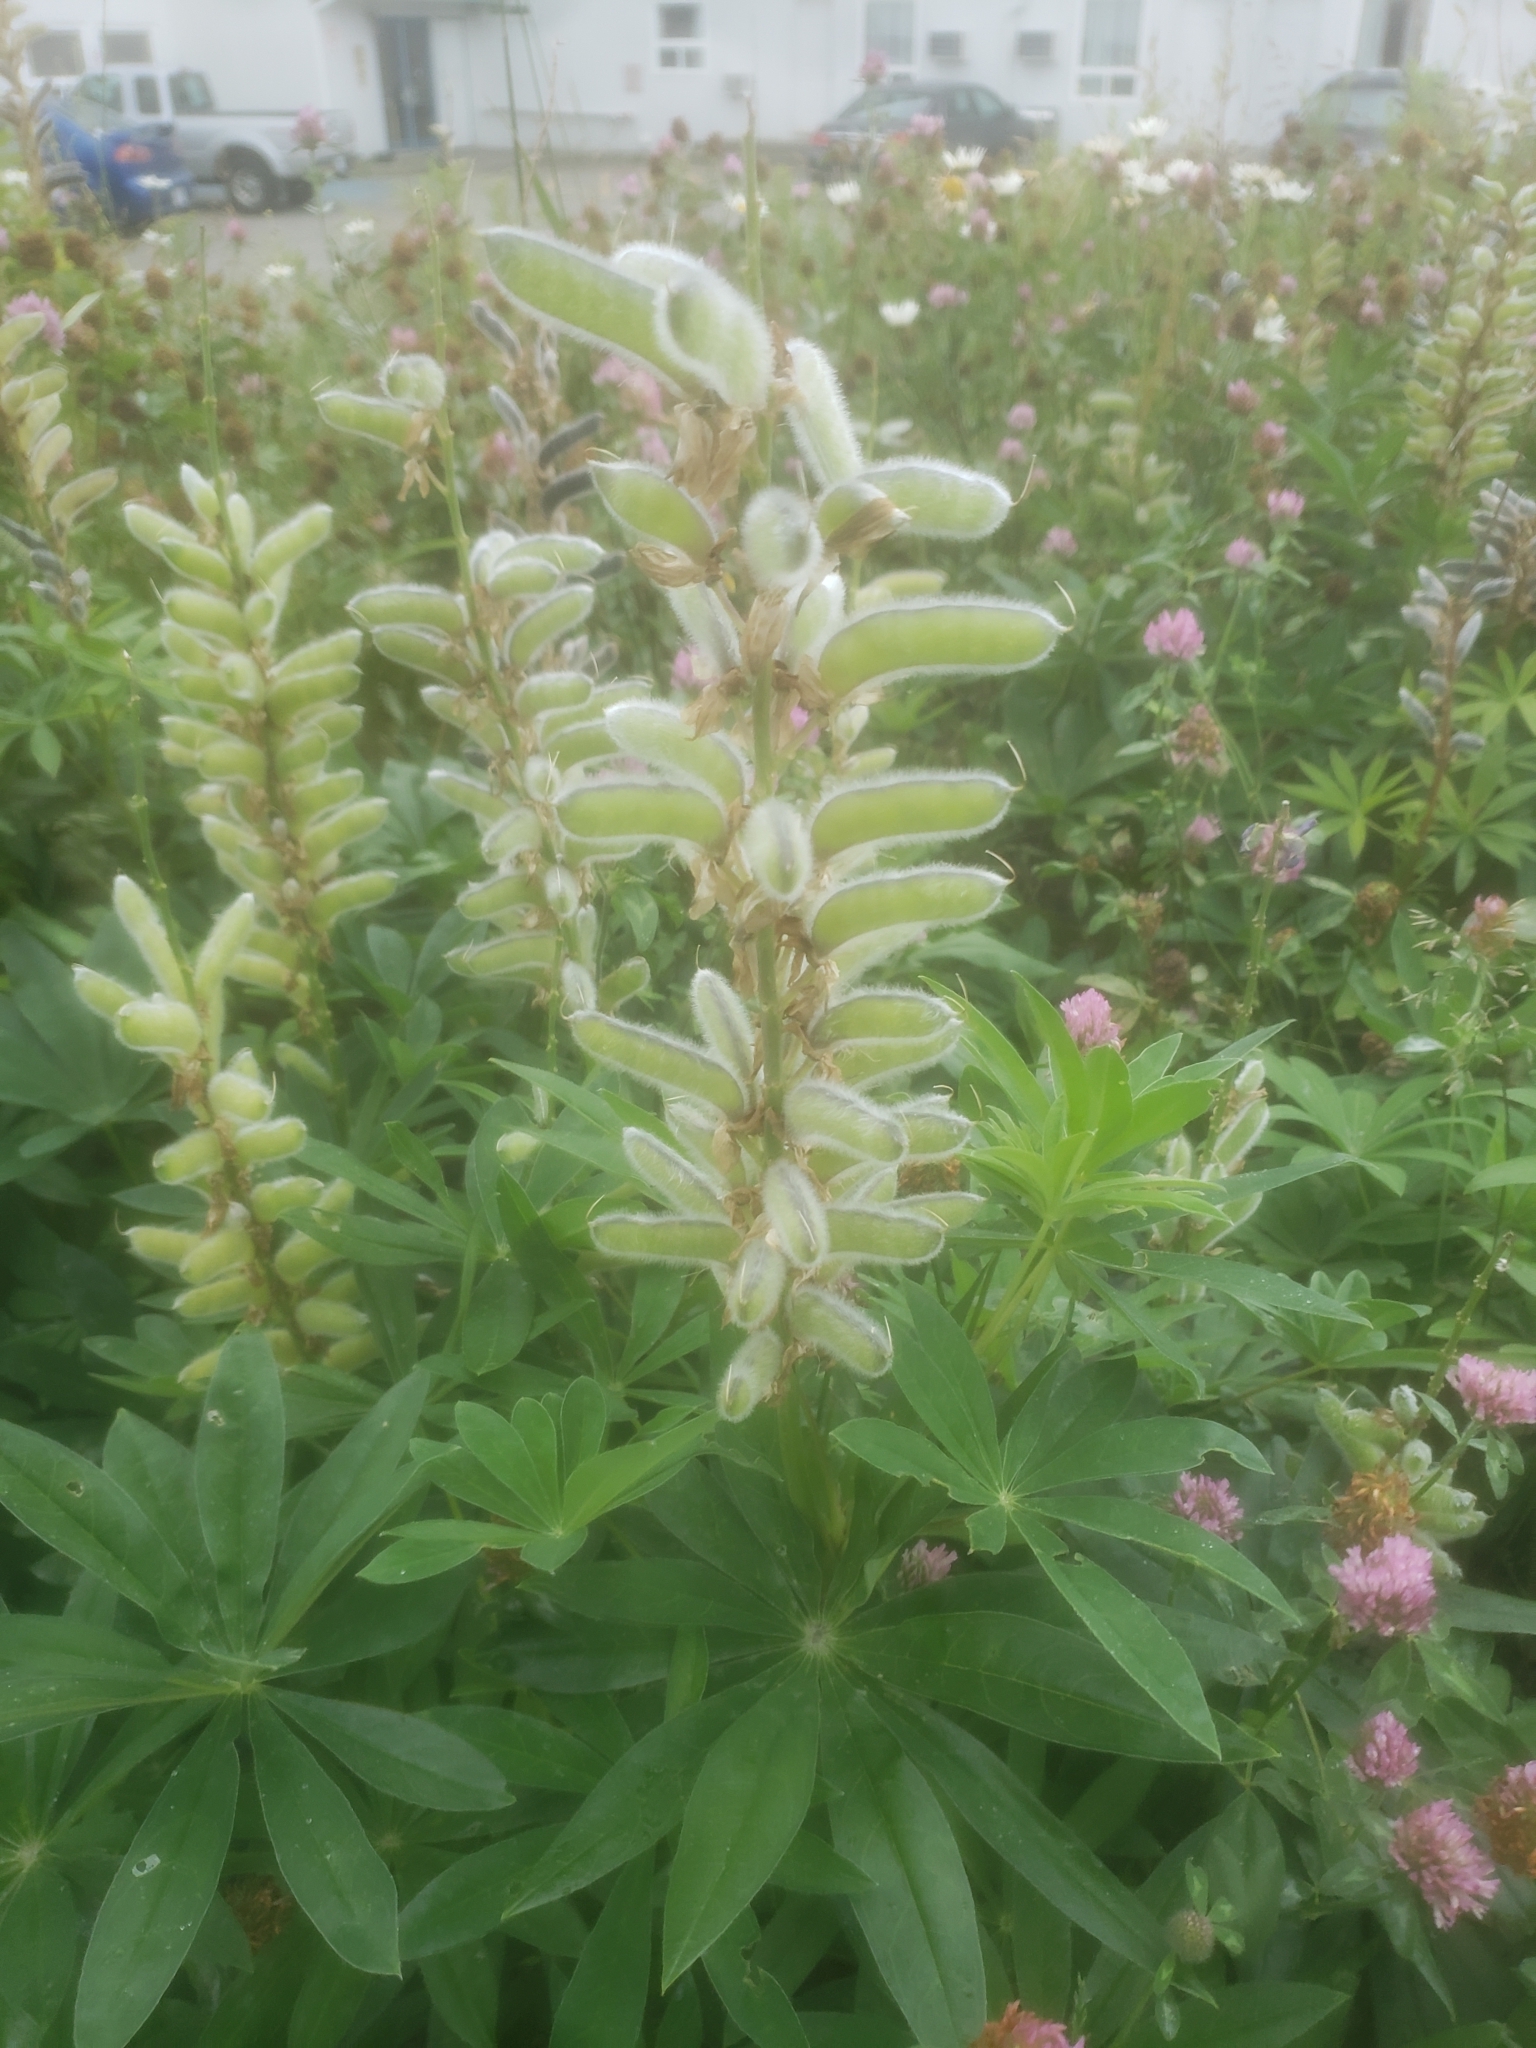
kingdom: Plantae
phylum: Tracheophyta
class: Magnoliopsida
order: Fabales
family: Fabaceae
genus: Lupinus
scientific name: Lupinus polyphyllus
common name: Garden lupin
